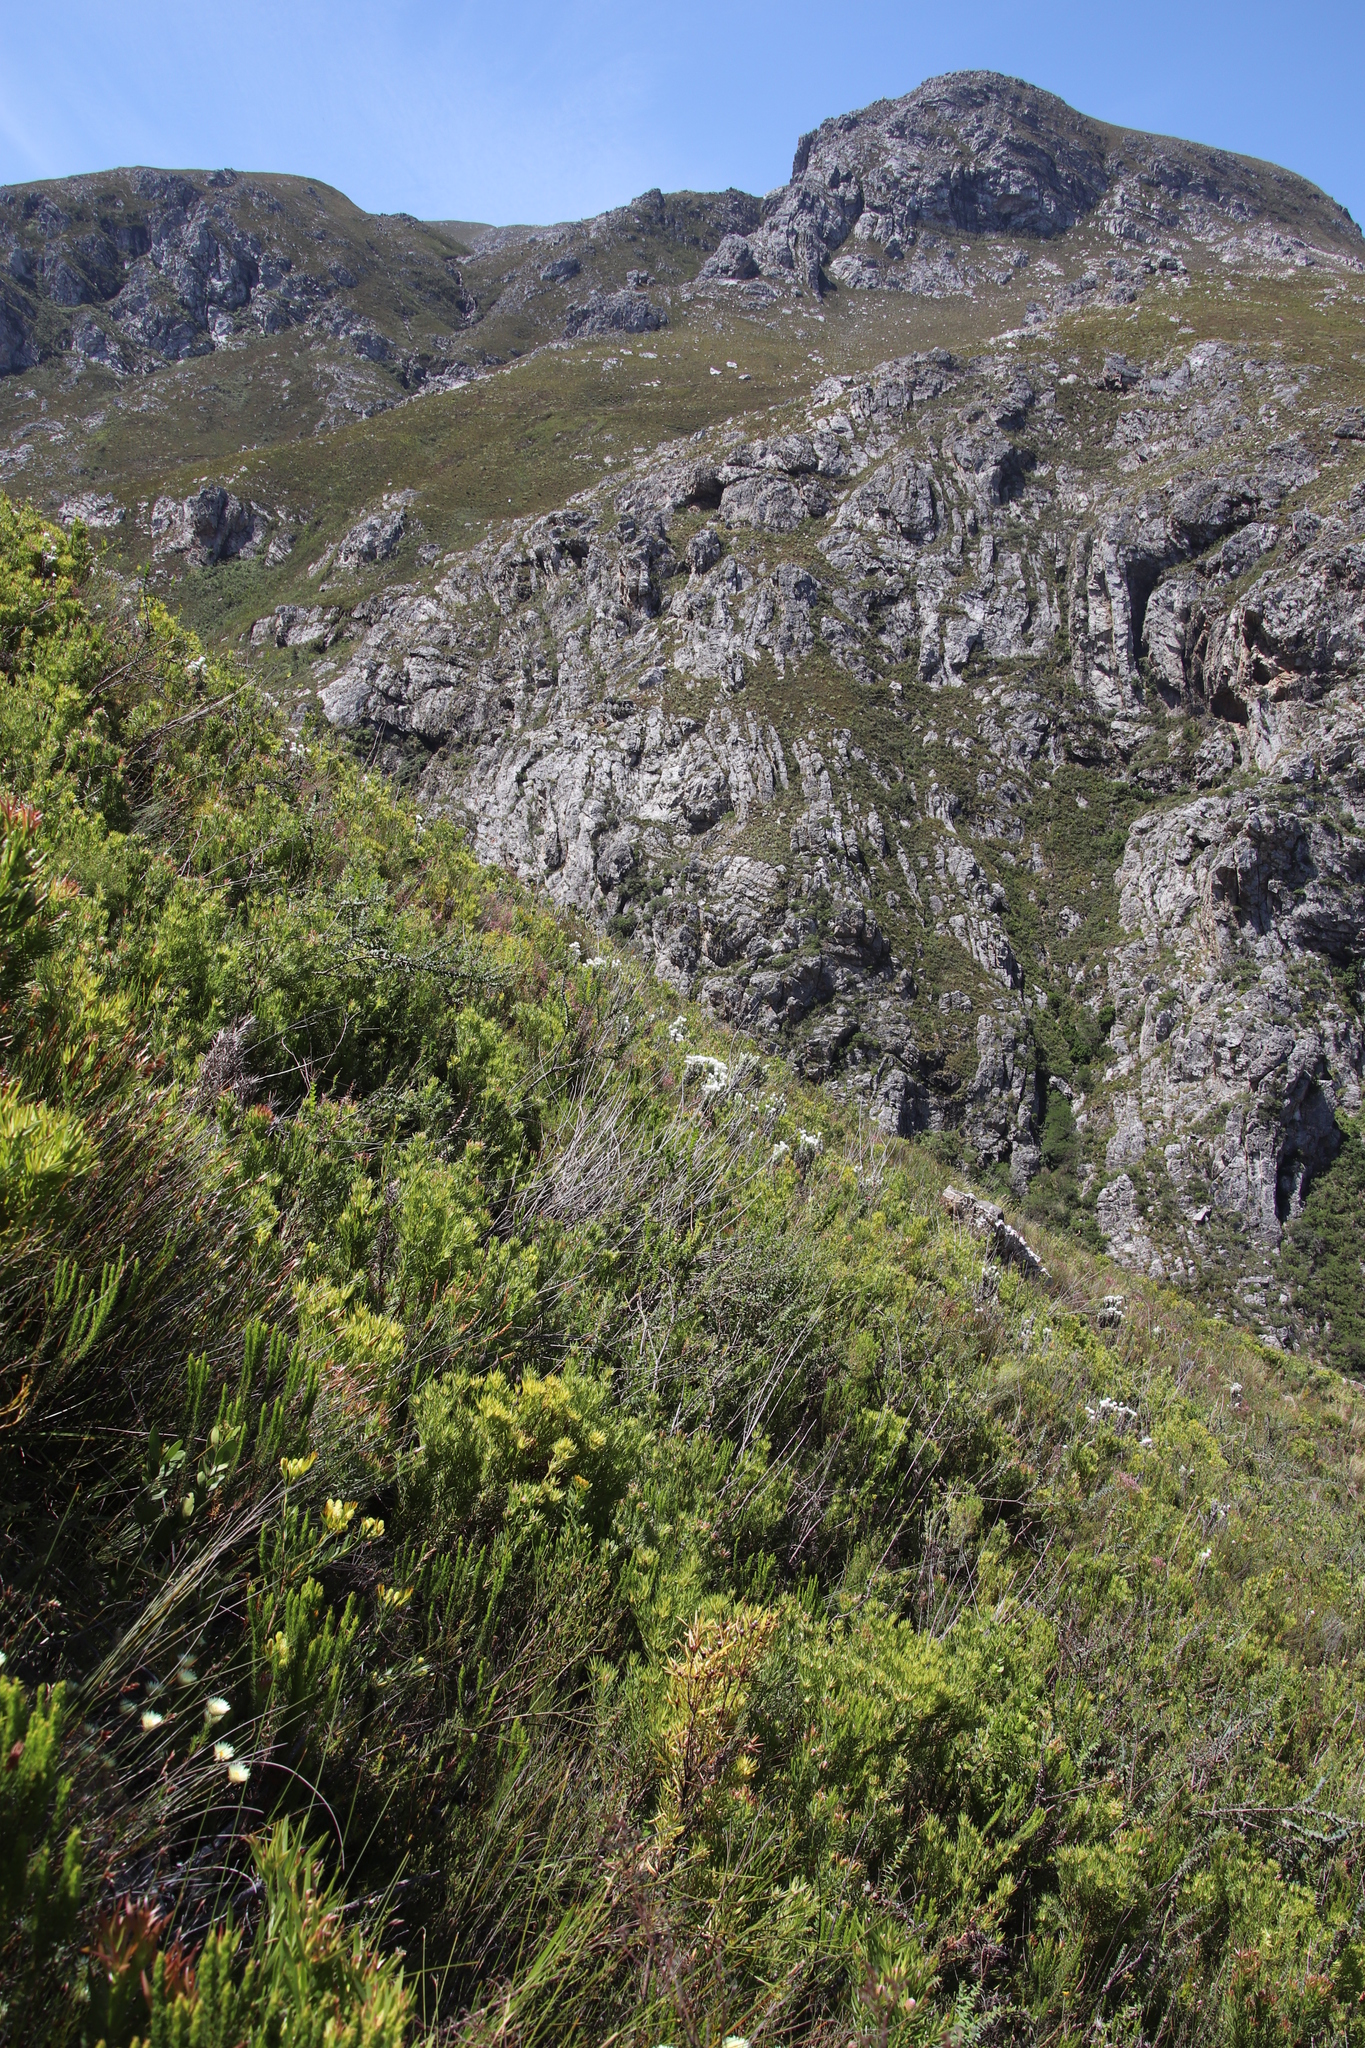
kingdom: Plantae
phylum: Tracheophyta
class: Magnoliopsida
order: Proteales
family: Proteaceae
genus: Leucadendron
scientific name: Leucadendron xanthoconus
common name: Sickle-leaf conebush
